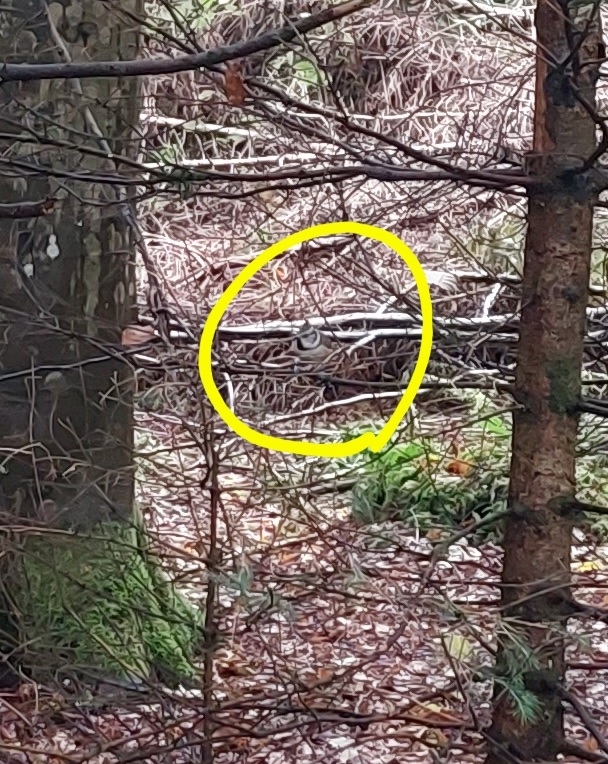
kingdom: Animalia
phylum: Chordata
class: Aves
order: Passeriformes
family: Paridae
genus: Lophophanes
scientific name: Lophophanes cristatus
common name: European crested tit
